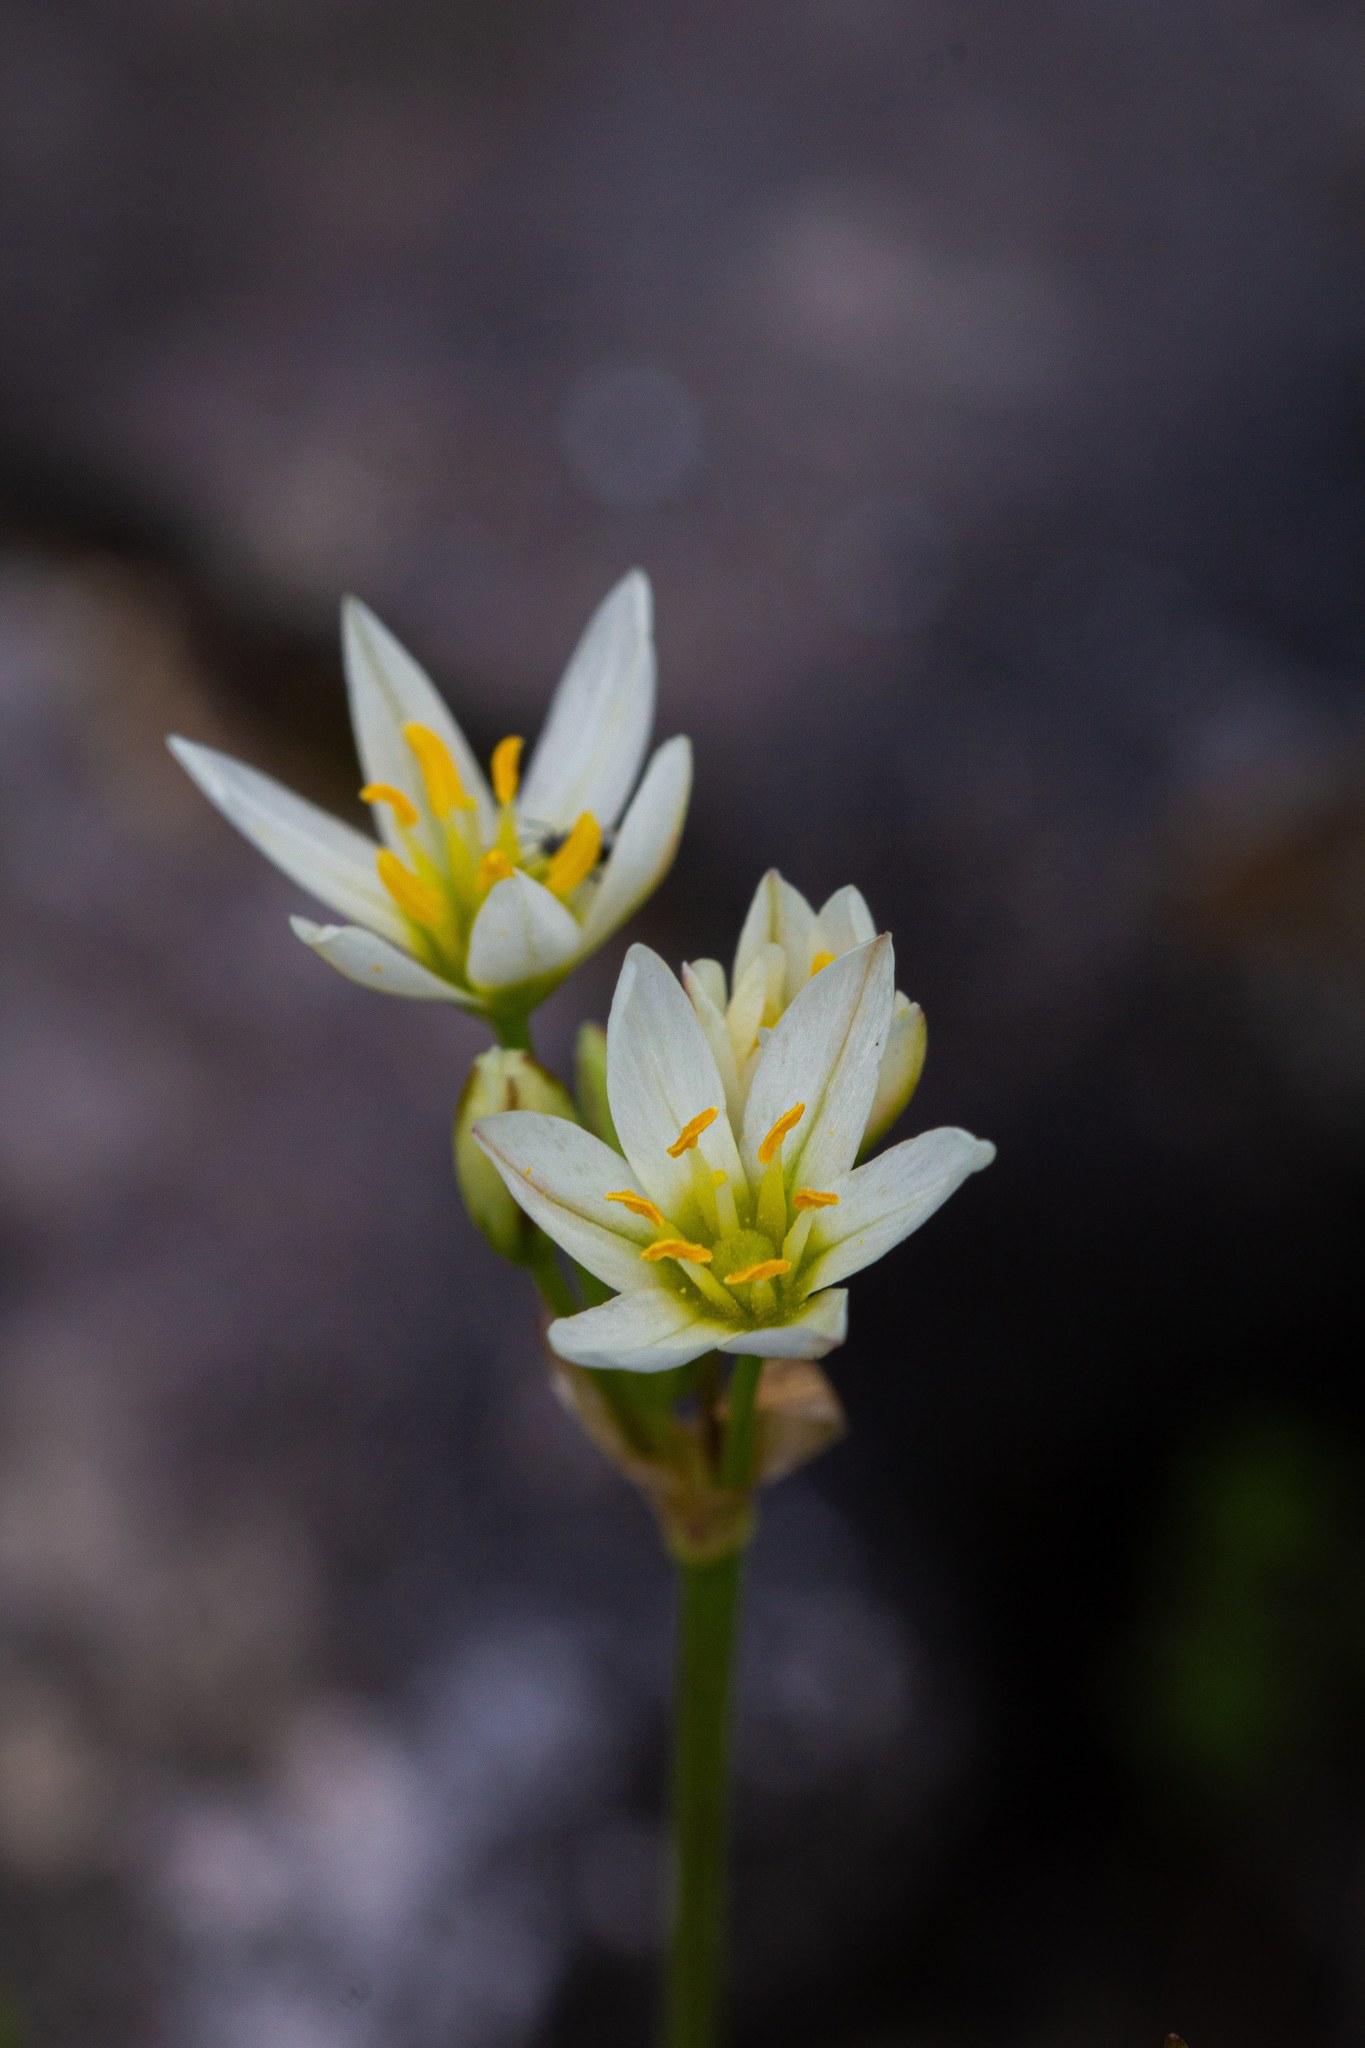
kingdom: Plantae
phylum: Tracheophyta
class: Liliopsida
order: Asparagales
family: Amaryllidaceae
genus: Nothoscordum
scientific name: Nothoscordum bivalve
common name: Crow-poison
